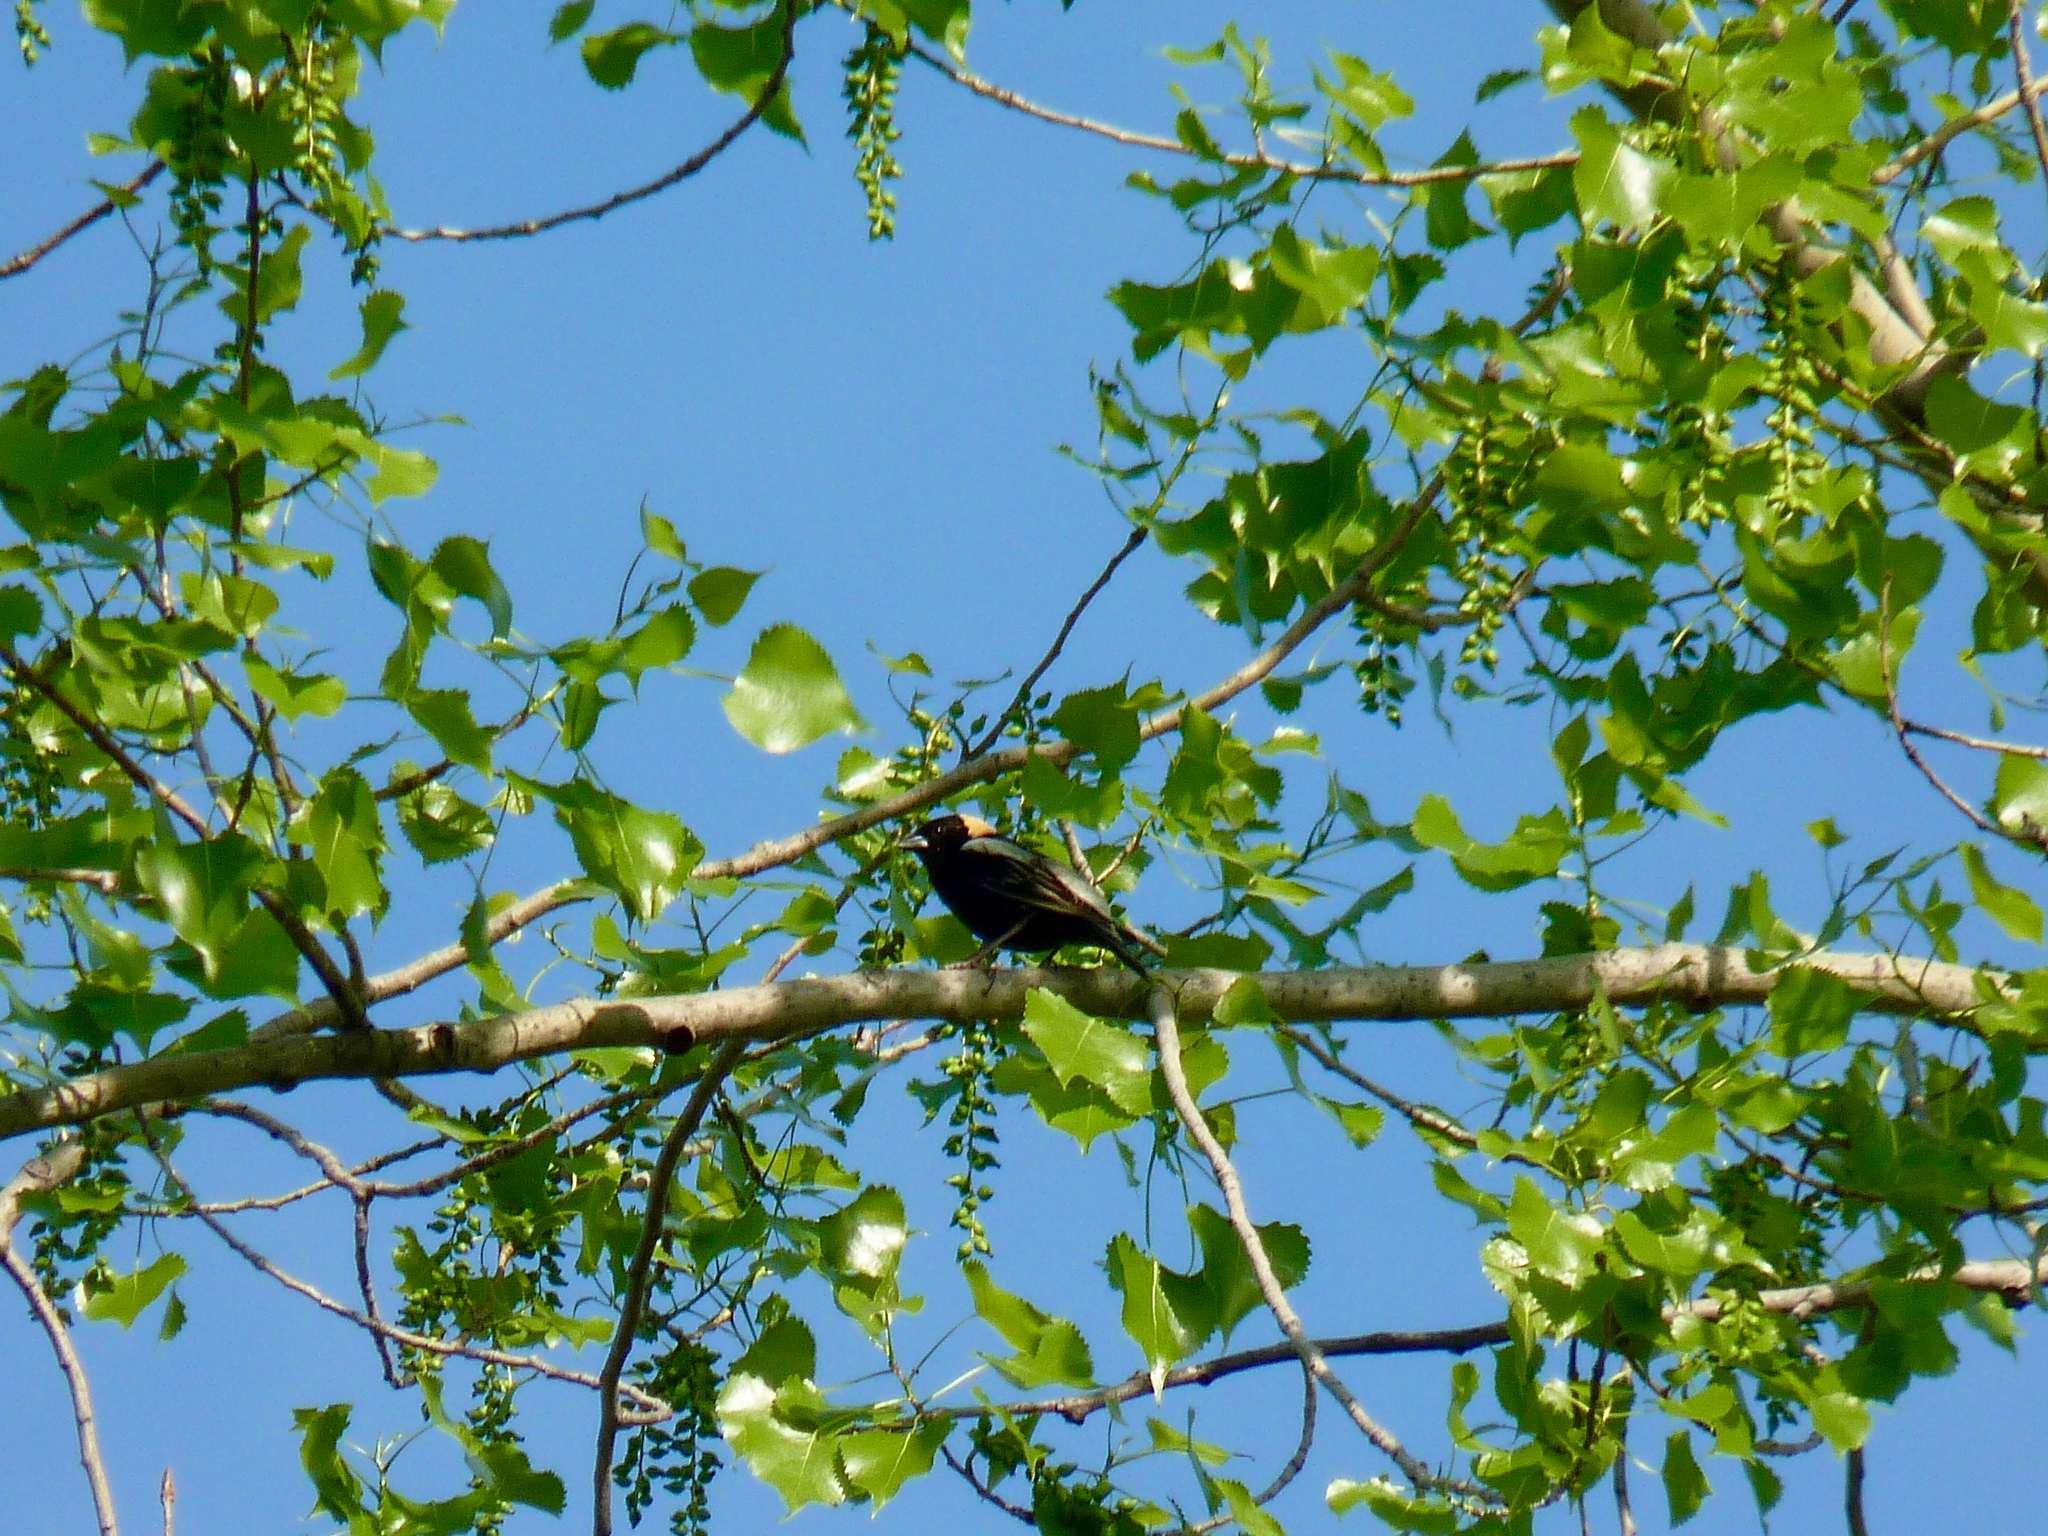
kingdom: Animalia
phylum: Chordata
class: Aves
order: Passeriformes
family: Icteridae
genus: Dolichonyx
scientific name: Dolichonyx oryzivorus
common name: Bobolink
